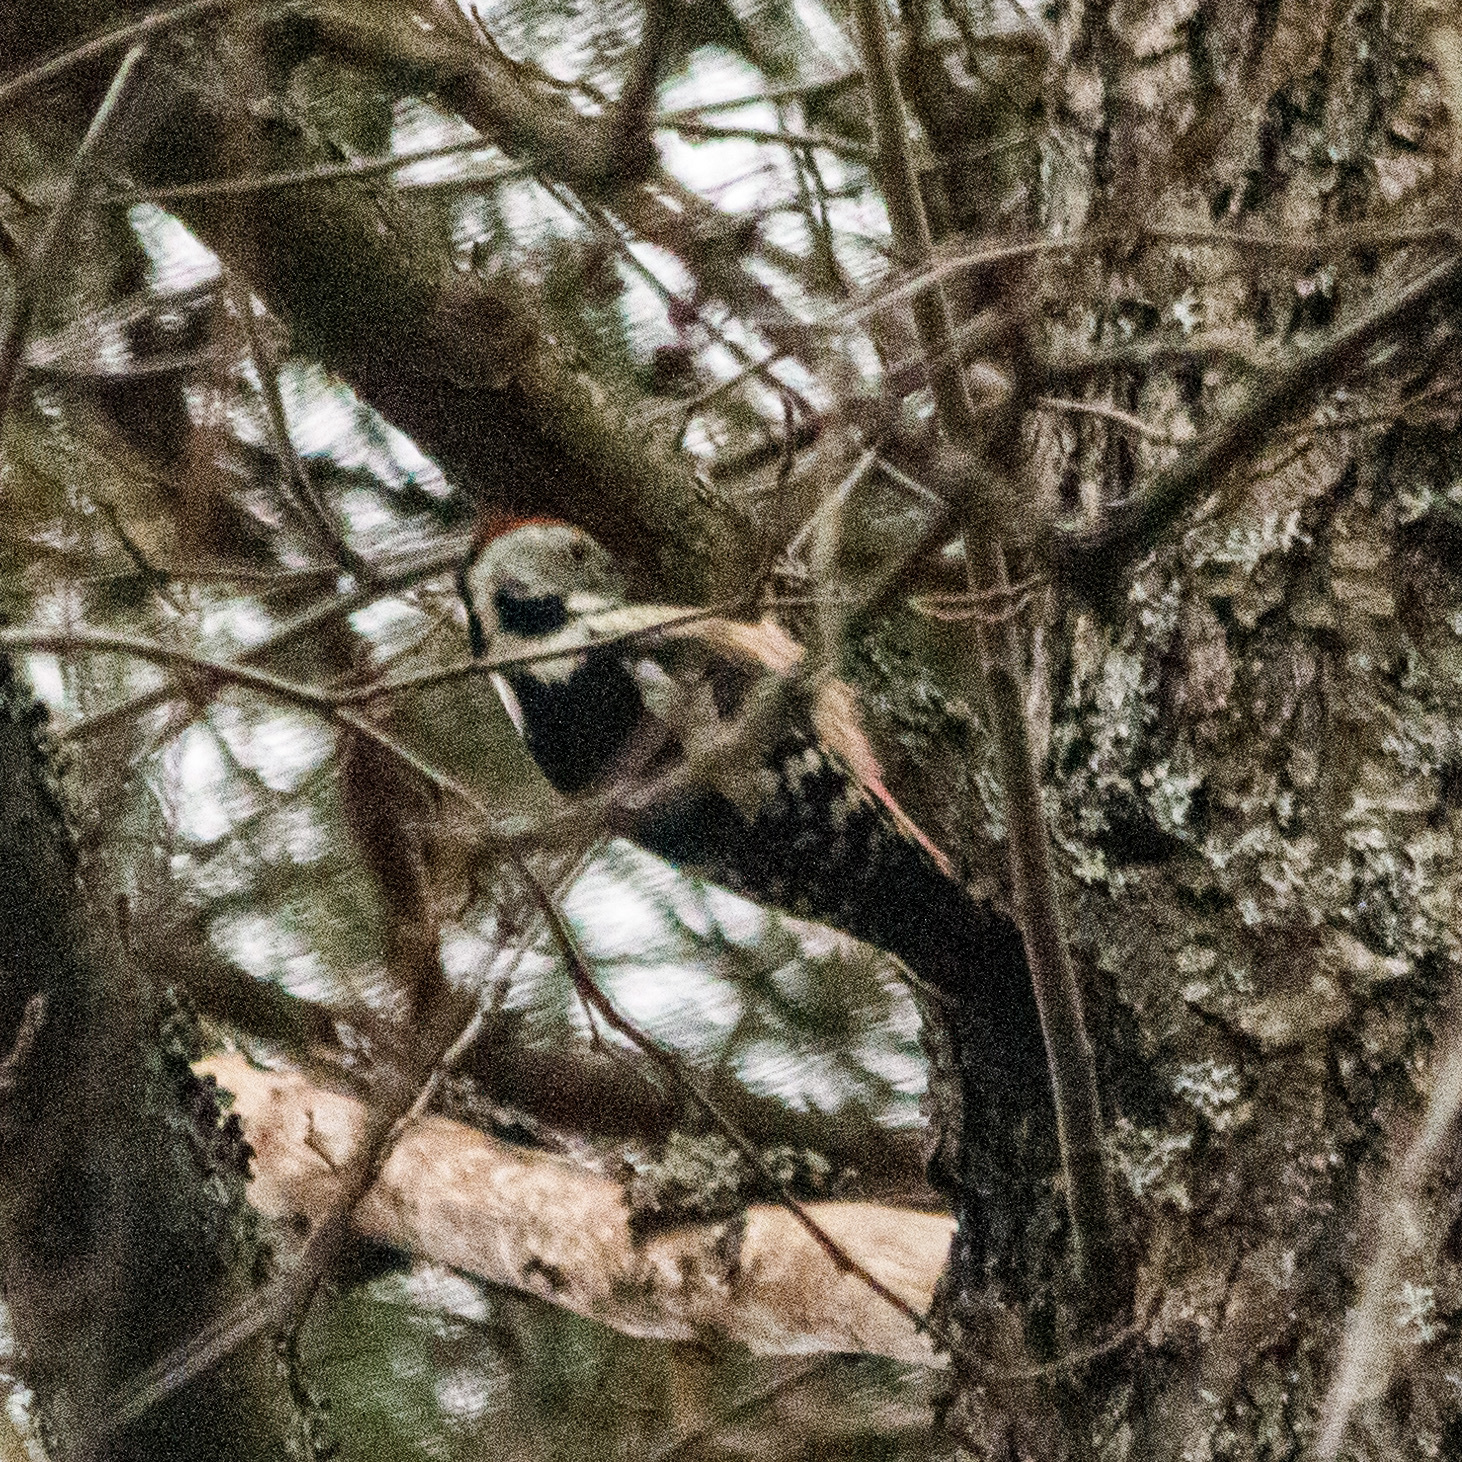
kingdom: Animalia
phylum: Chordata
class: Aves
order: Piciformes
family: Picidae
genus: Dendrocoptes
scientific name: Dendrocoptes medius
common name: Middle spotted woodpecker
